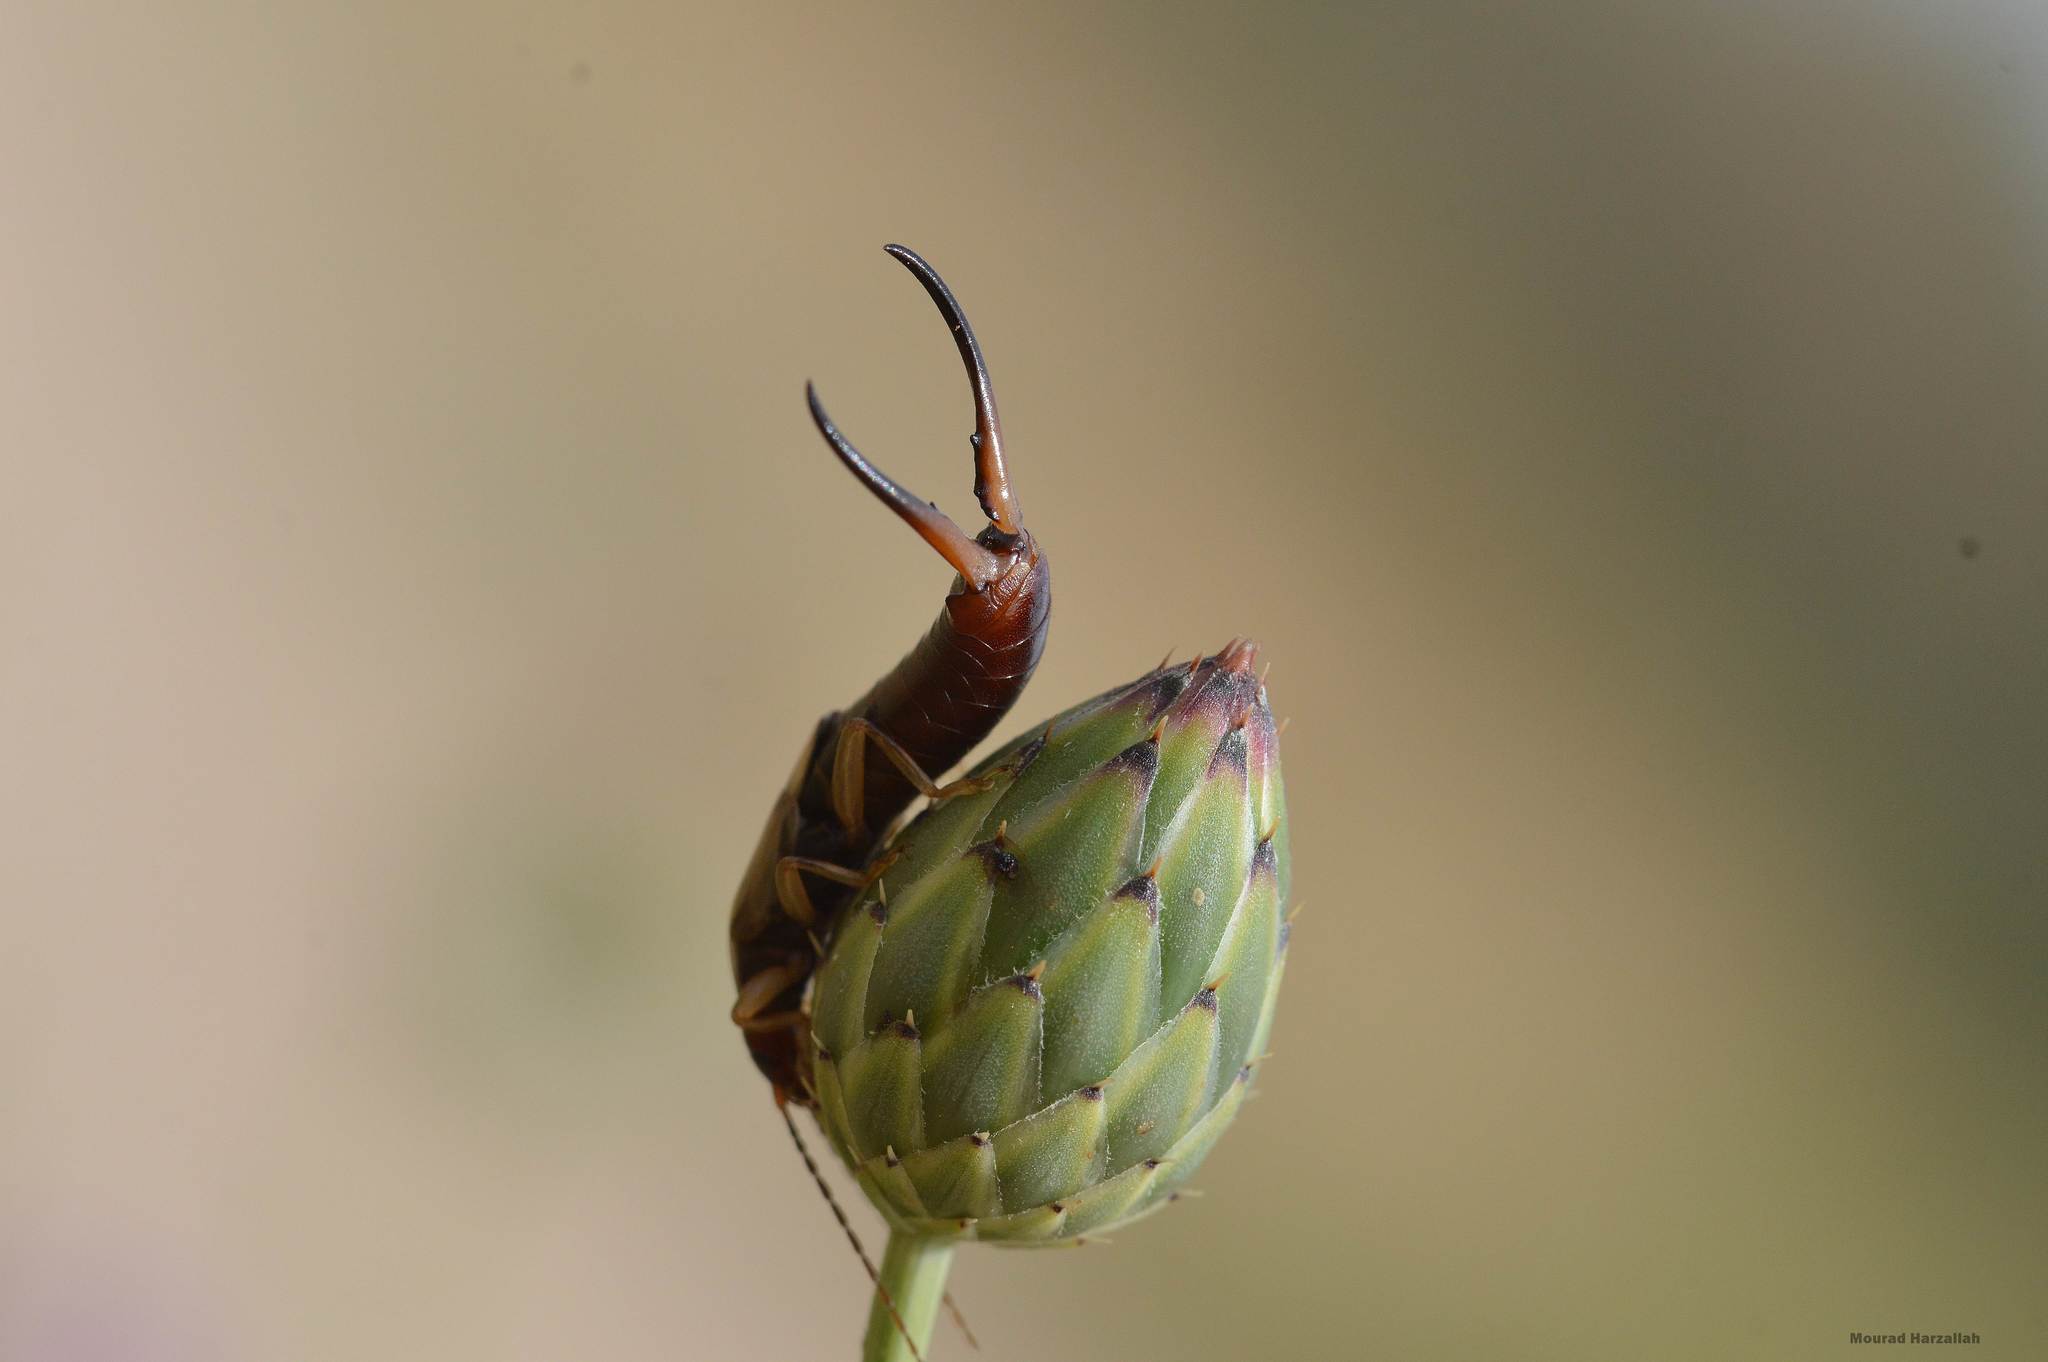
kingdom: Animalia
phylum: Arthropoda
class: Insecta
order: Dermaptera
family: Forficulidae
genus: Forficula
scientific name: Forficula
